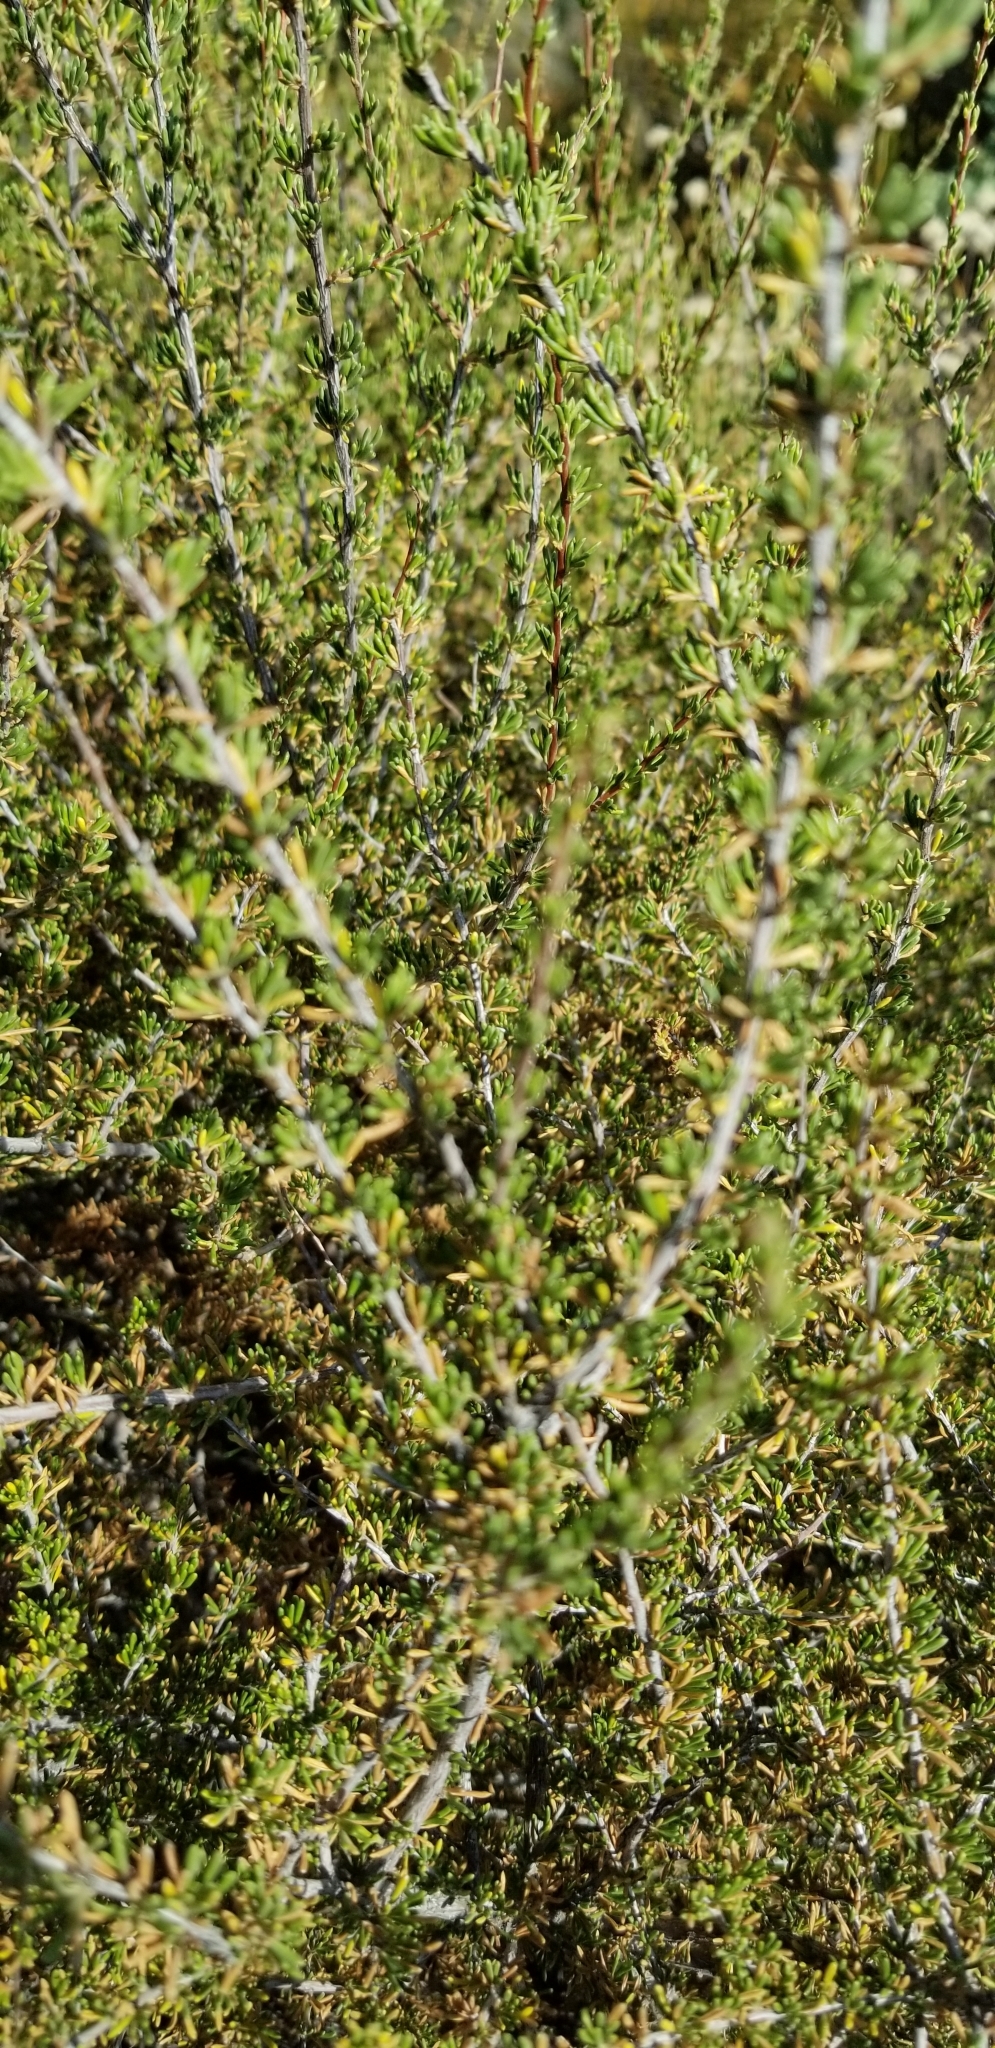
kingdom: Plantae
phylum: Tracheophyta
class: Magnoliopsida
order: Caryophyllales
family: Polygonaceae
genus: Eriogonum
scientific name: Eriogonum fasciculatum
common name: California wild buckwheat
